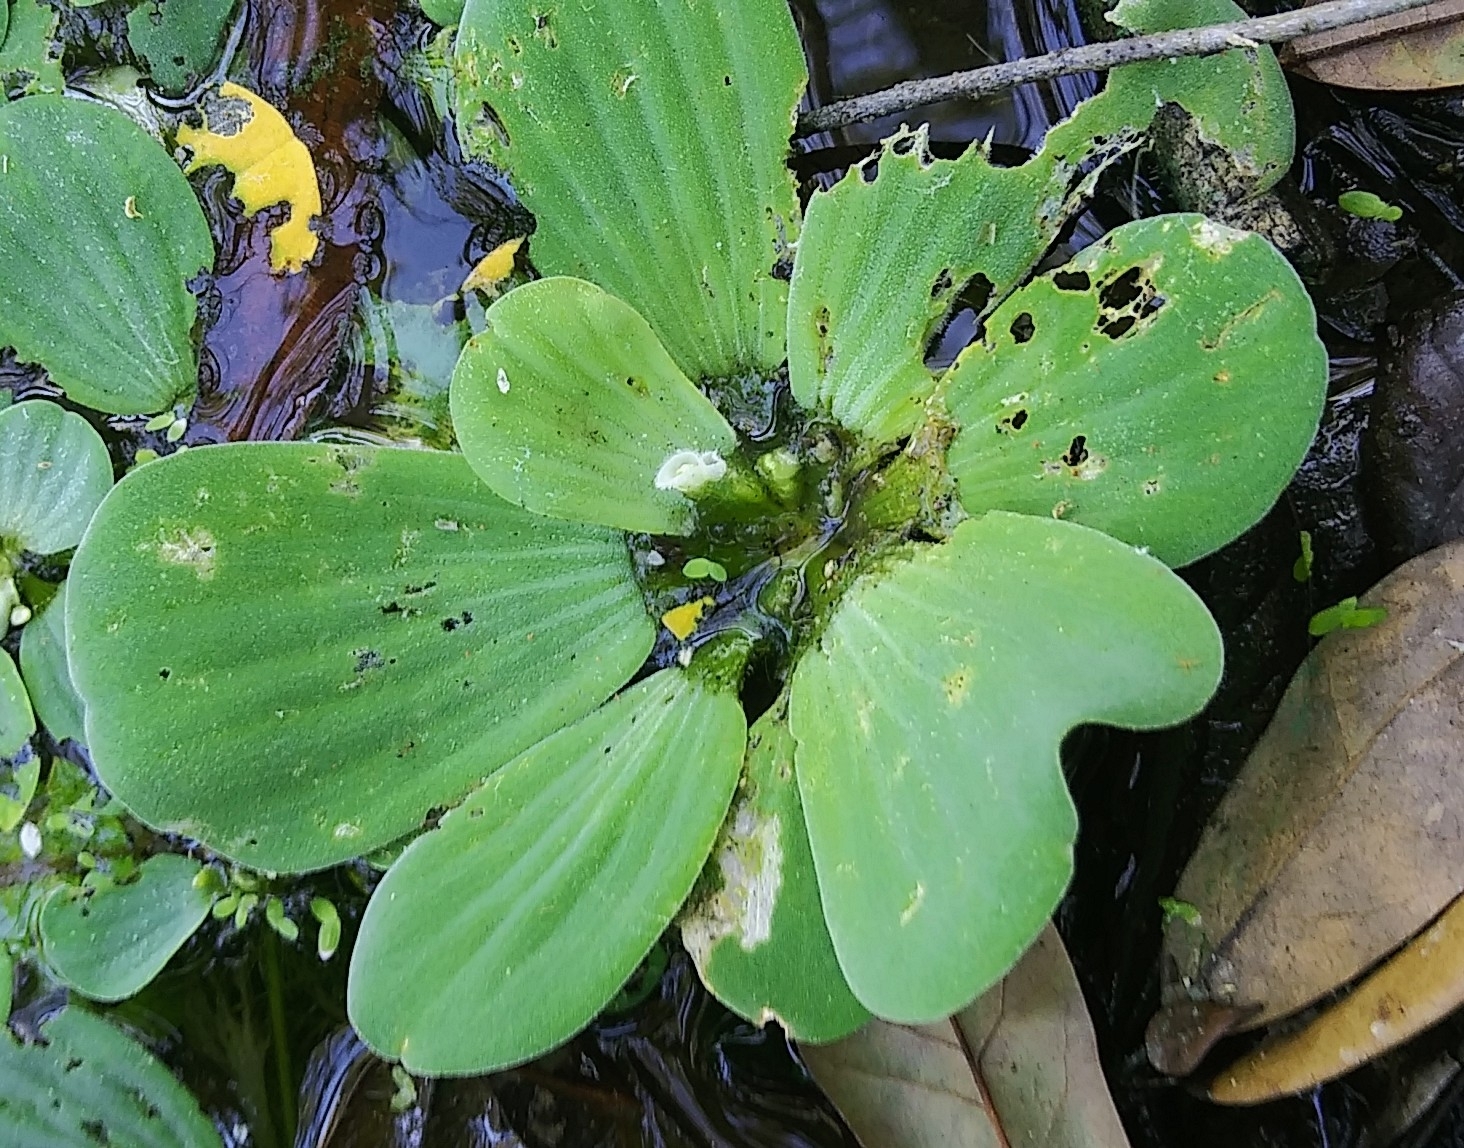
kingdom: Plantae
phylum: Tracheophyta
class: Liliopsida
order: Alismatales
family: Araceae
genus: Pistia
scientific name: Pistia stratiotes
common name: Water lettuce
